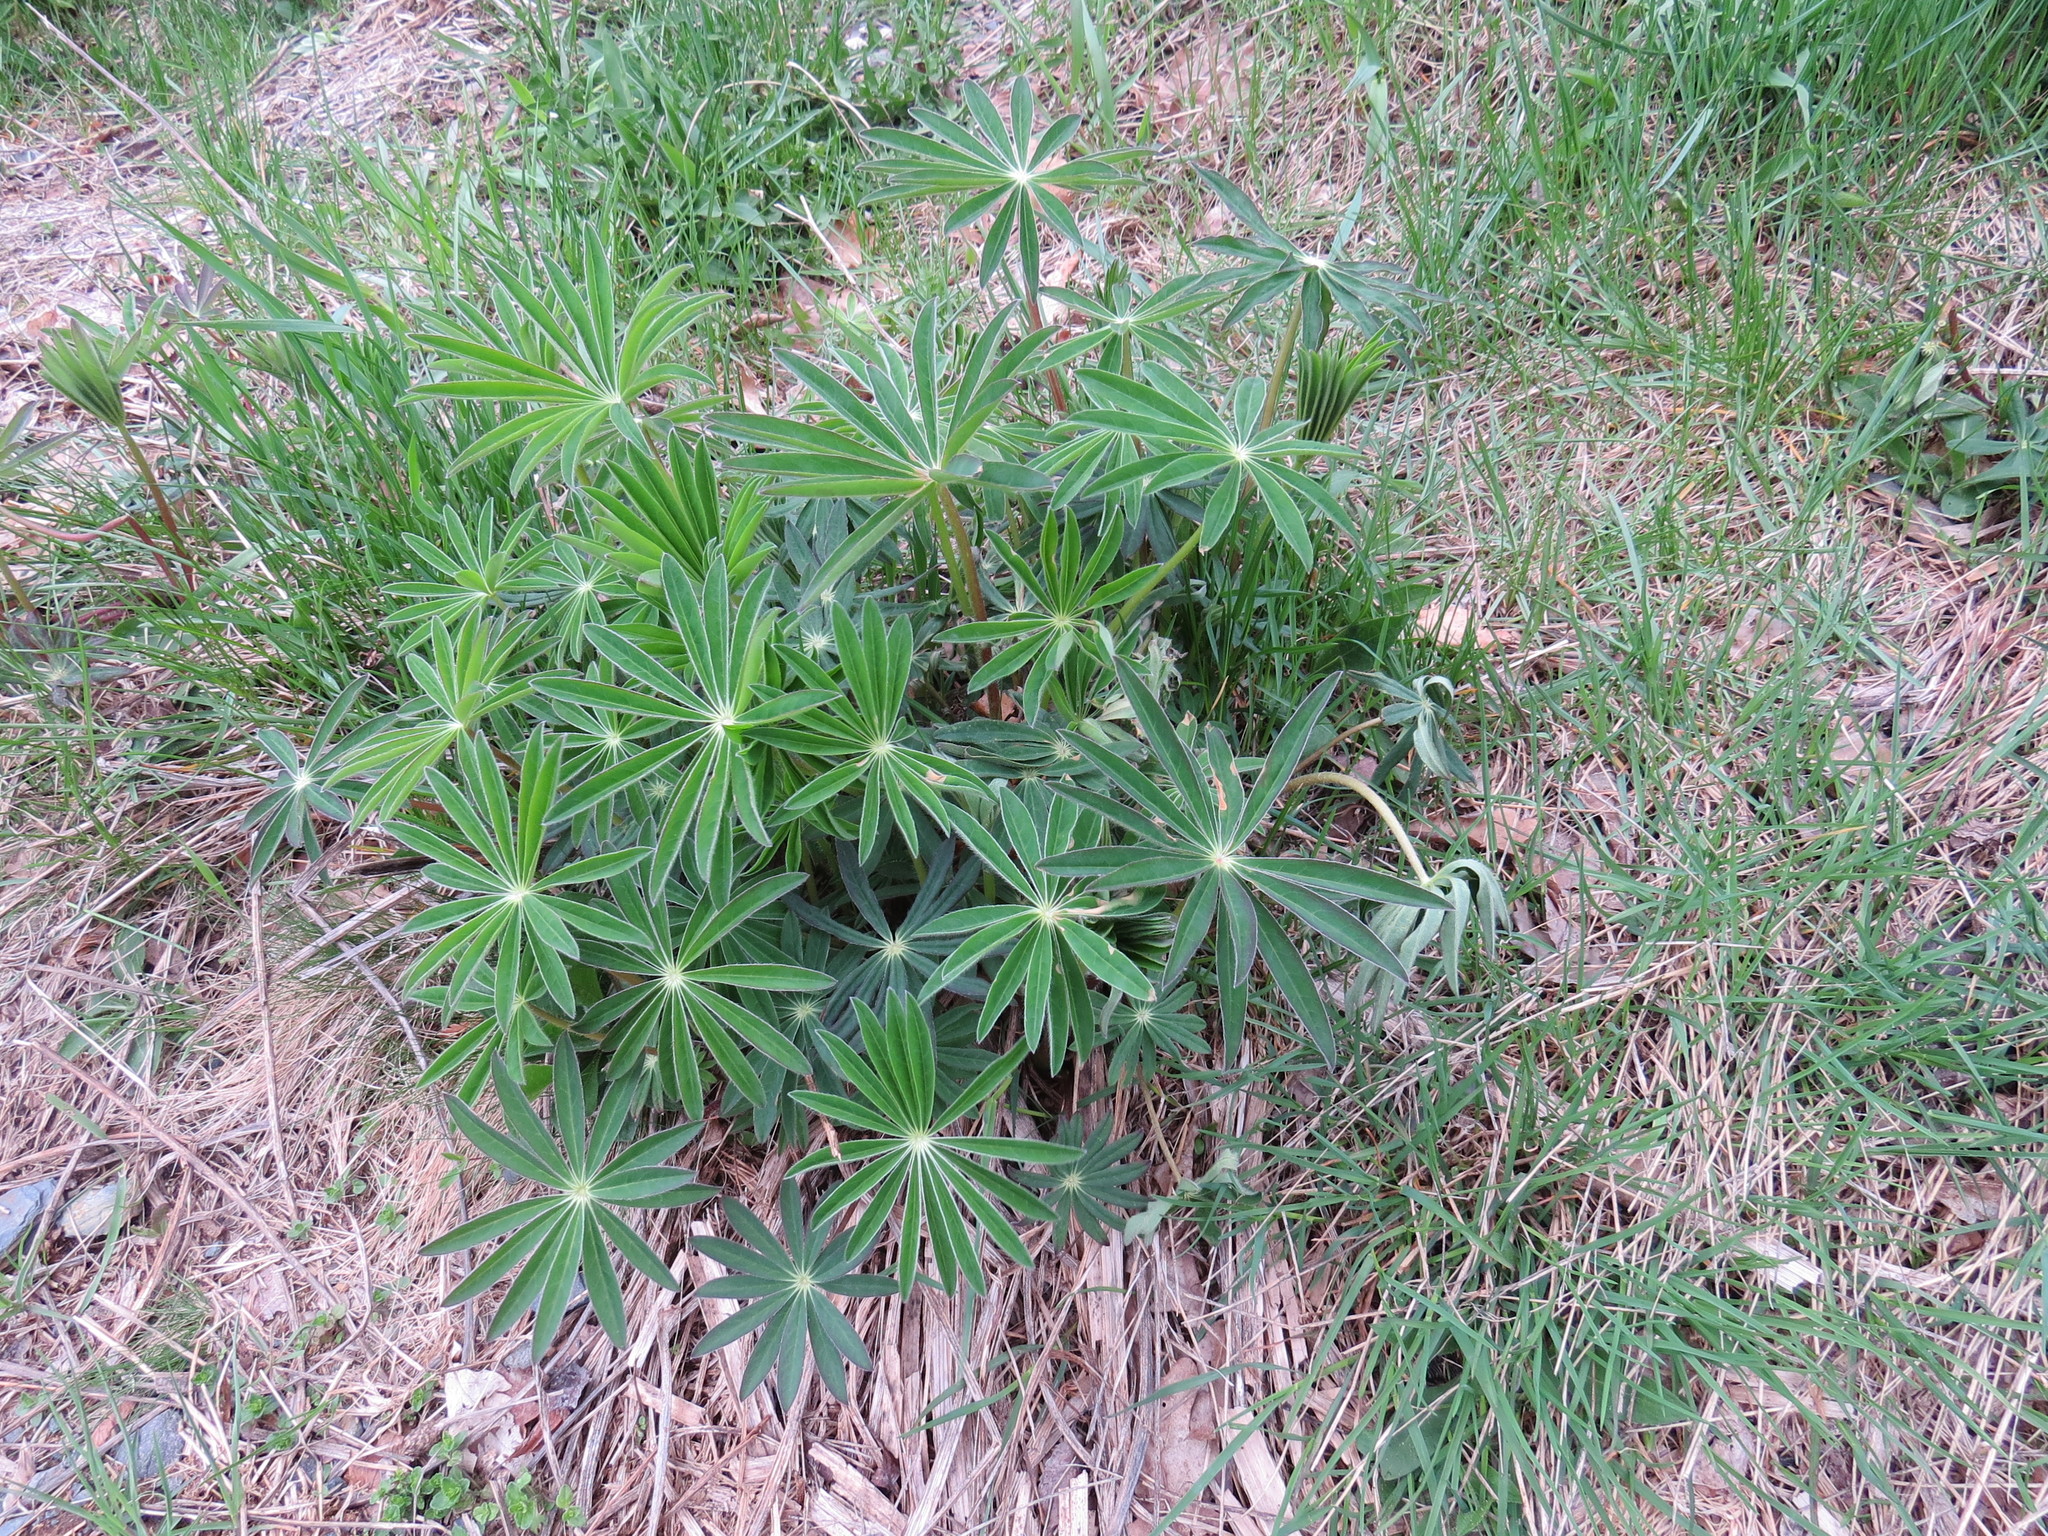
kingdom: Plantae
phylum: Tracheophyta
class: Magnoliopsida
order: Fabales
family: Fabaceae
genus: Lupinus
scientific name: Lupinus polyphyllus
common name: Garden lupin
